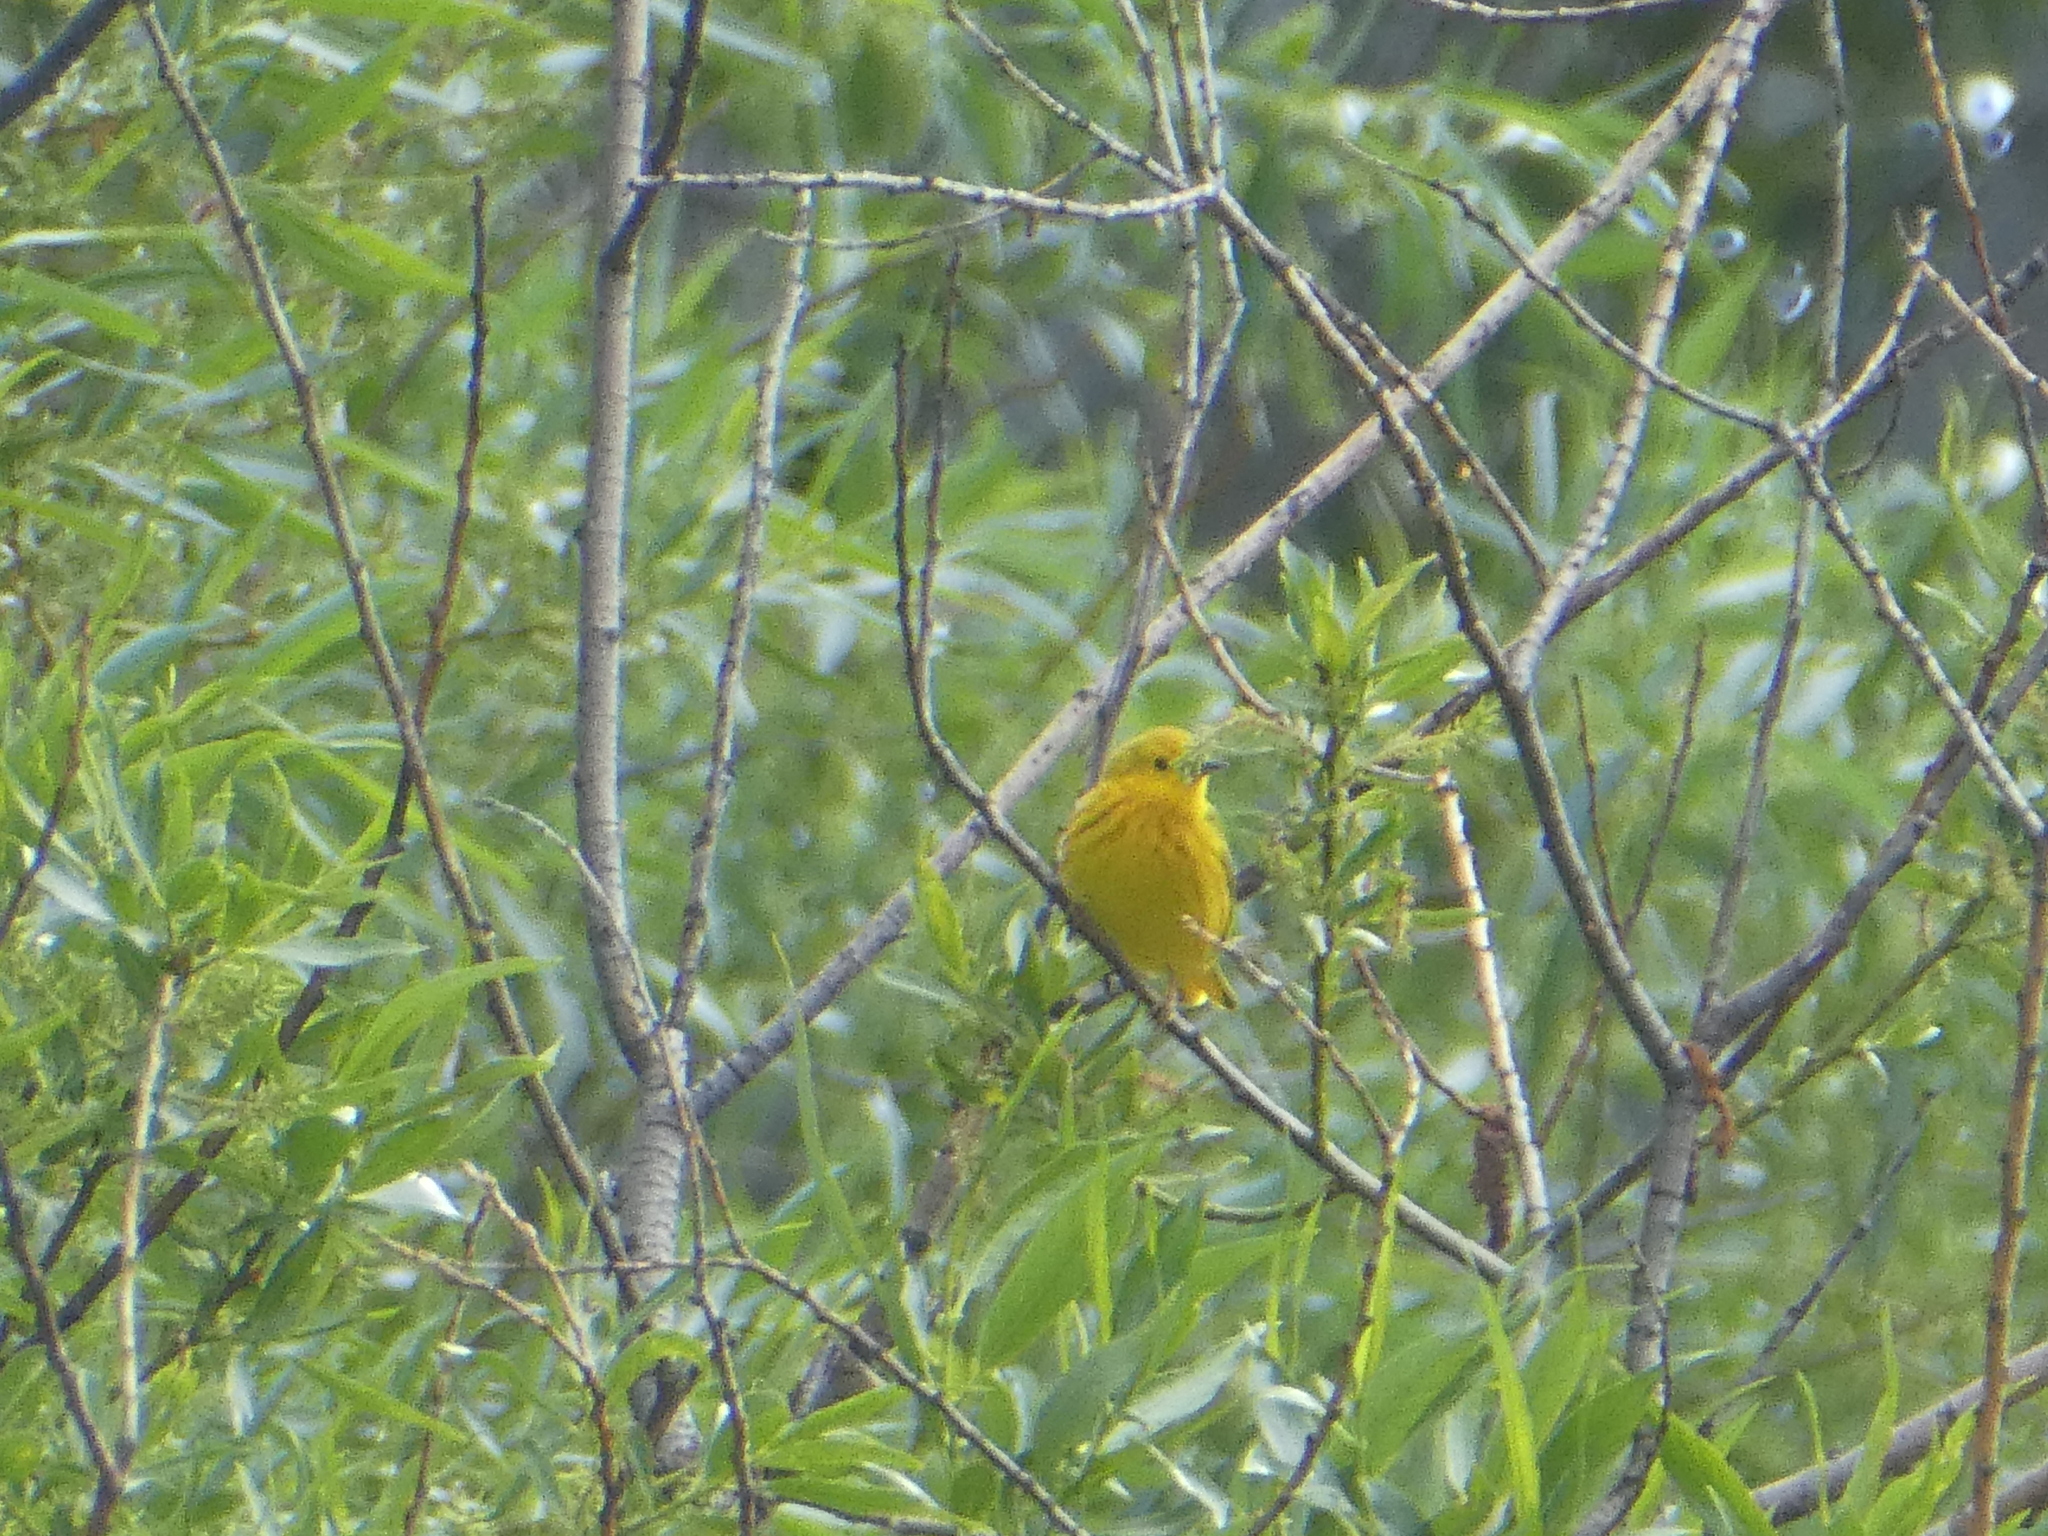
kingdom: Animalia
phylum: Chordata
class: Aves
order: Passeriformes
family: Parulidae
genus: Setophaga
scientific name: Setophaga petechia
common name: Yellow warbler
